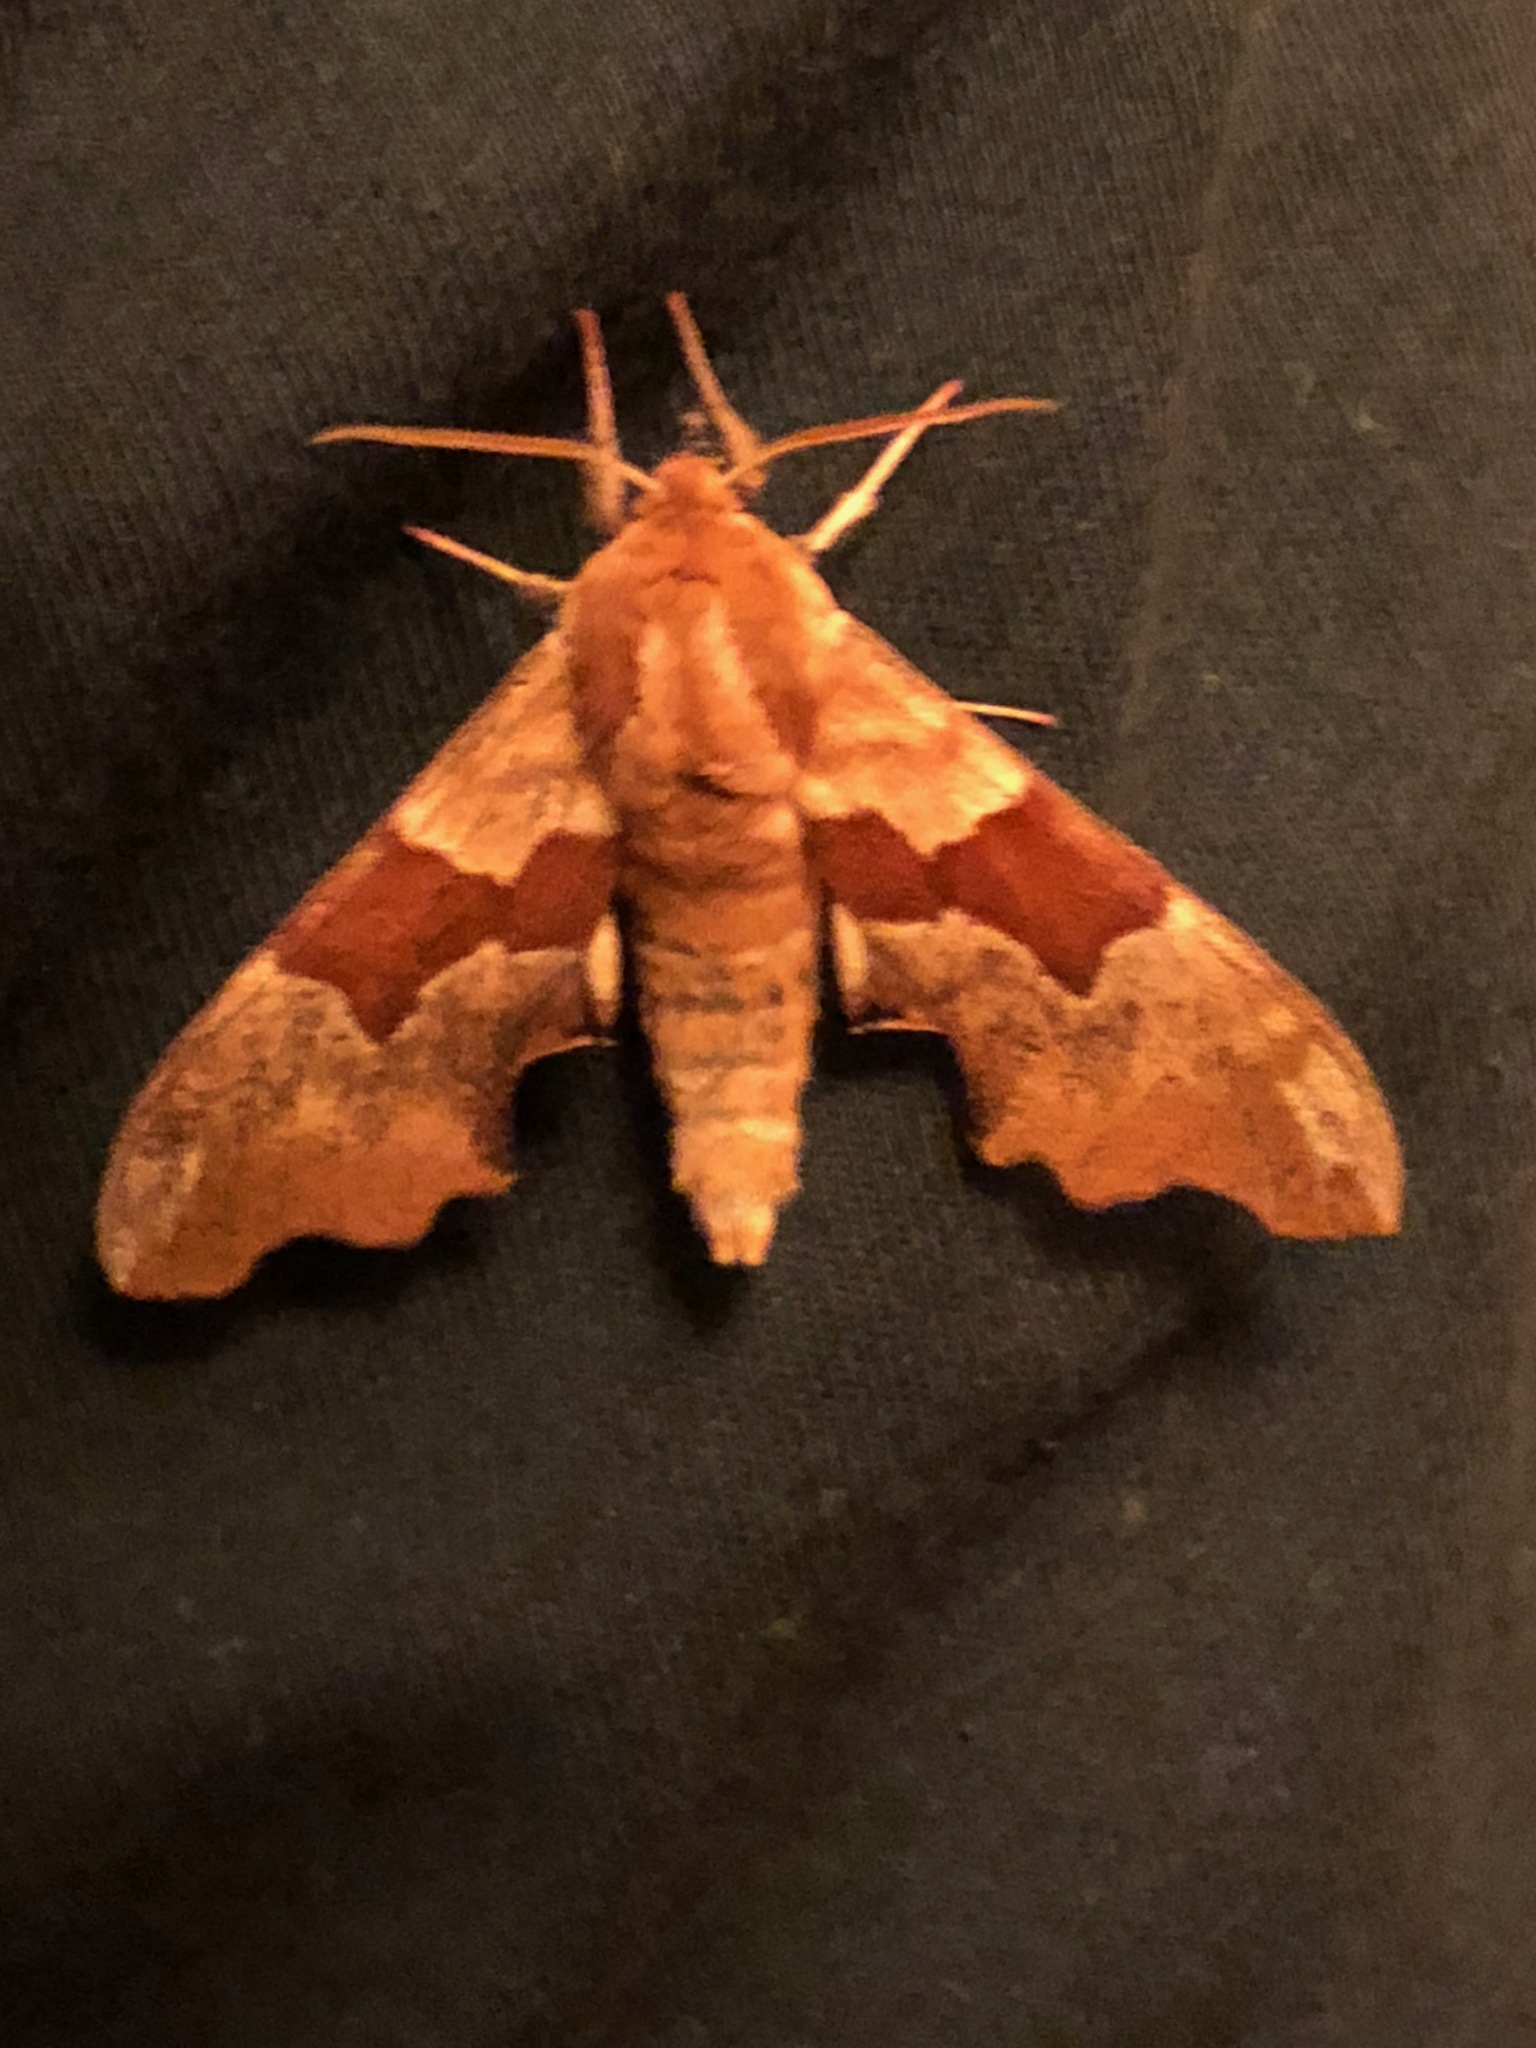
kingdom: Animalia
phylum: Arthropoda
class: Insecta
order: Lepidoptera
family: Sphingidae
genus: Mimas
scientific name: Mimas tiliae
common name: Lime hawk-moth
